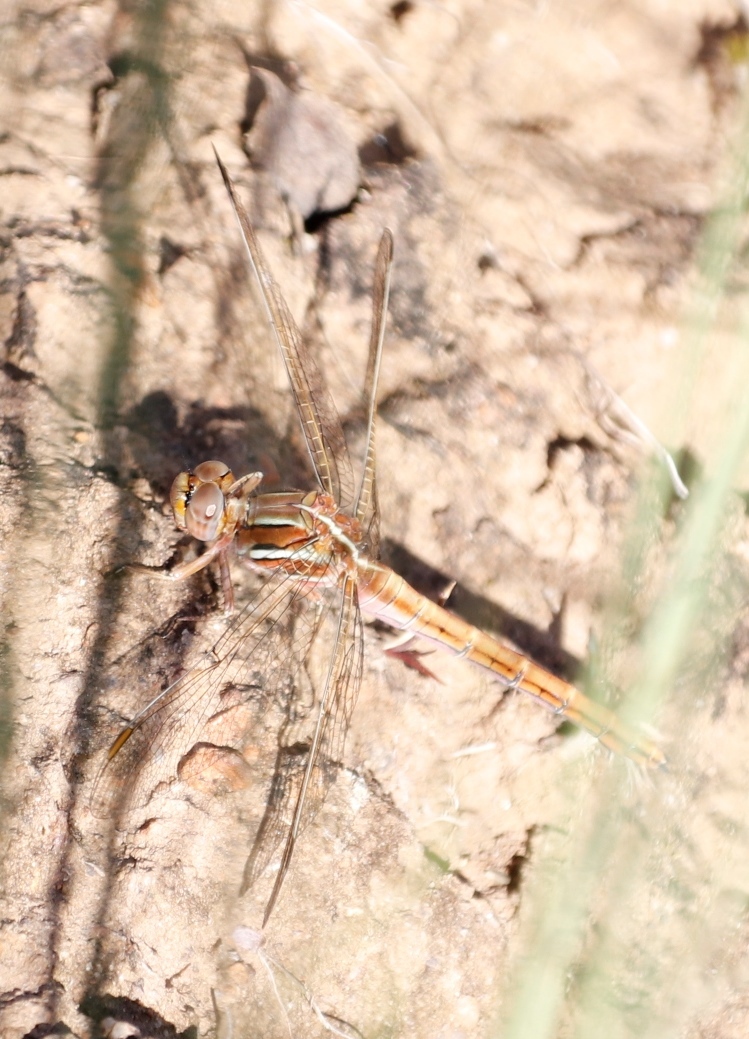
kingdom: Animalia
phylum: Arthropoda
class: Insecta
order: Odonata
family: Libellulidae
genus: Orthetrum
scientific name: Orthetrum caffrum
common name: Two-striped skimmer
